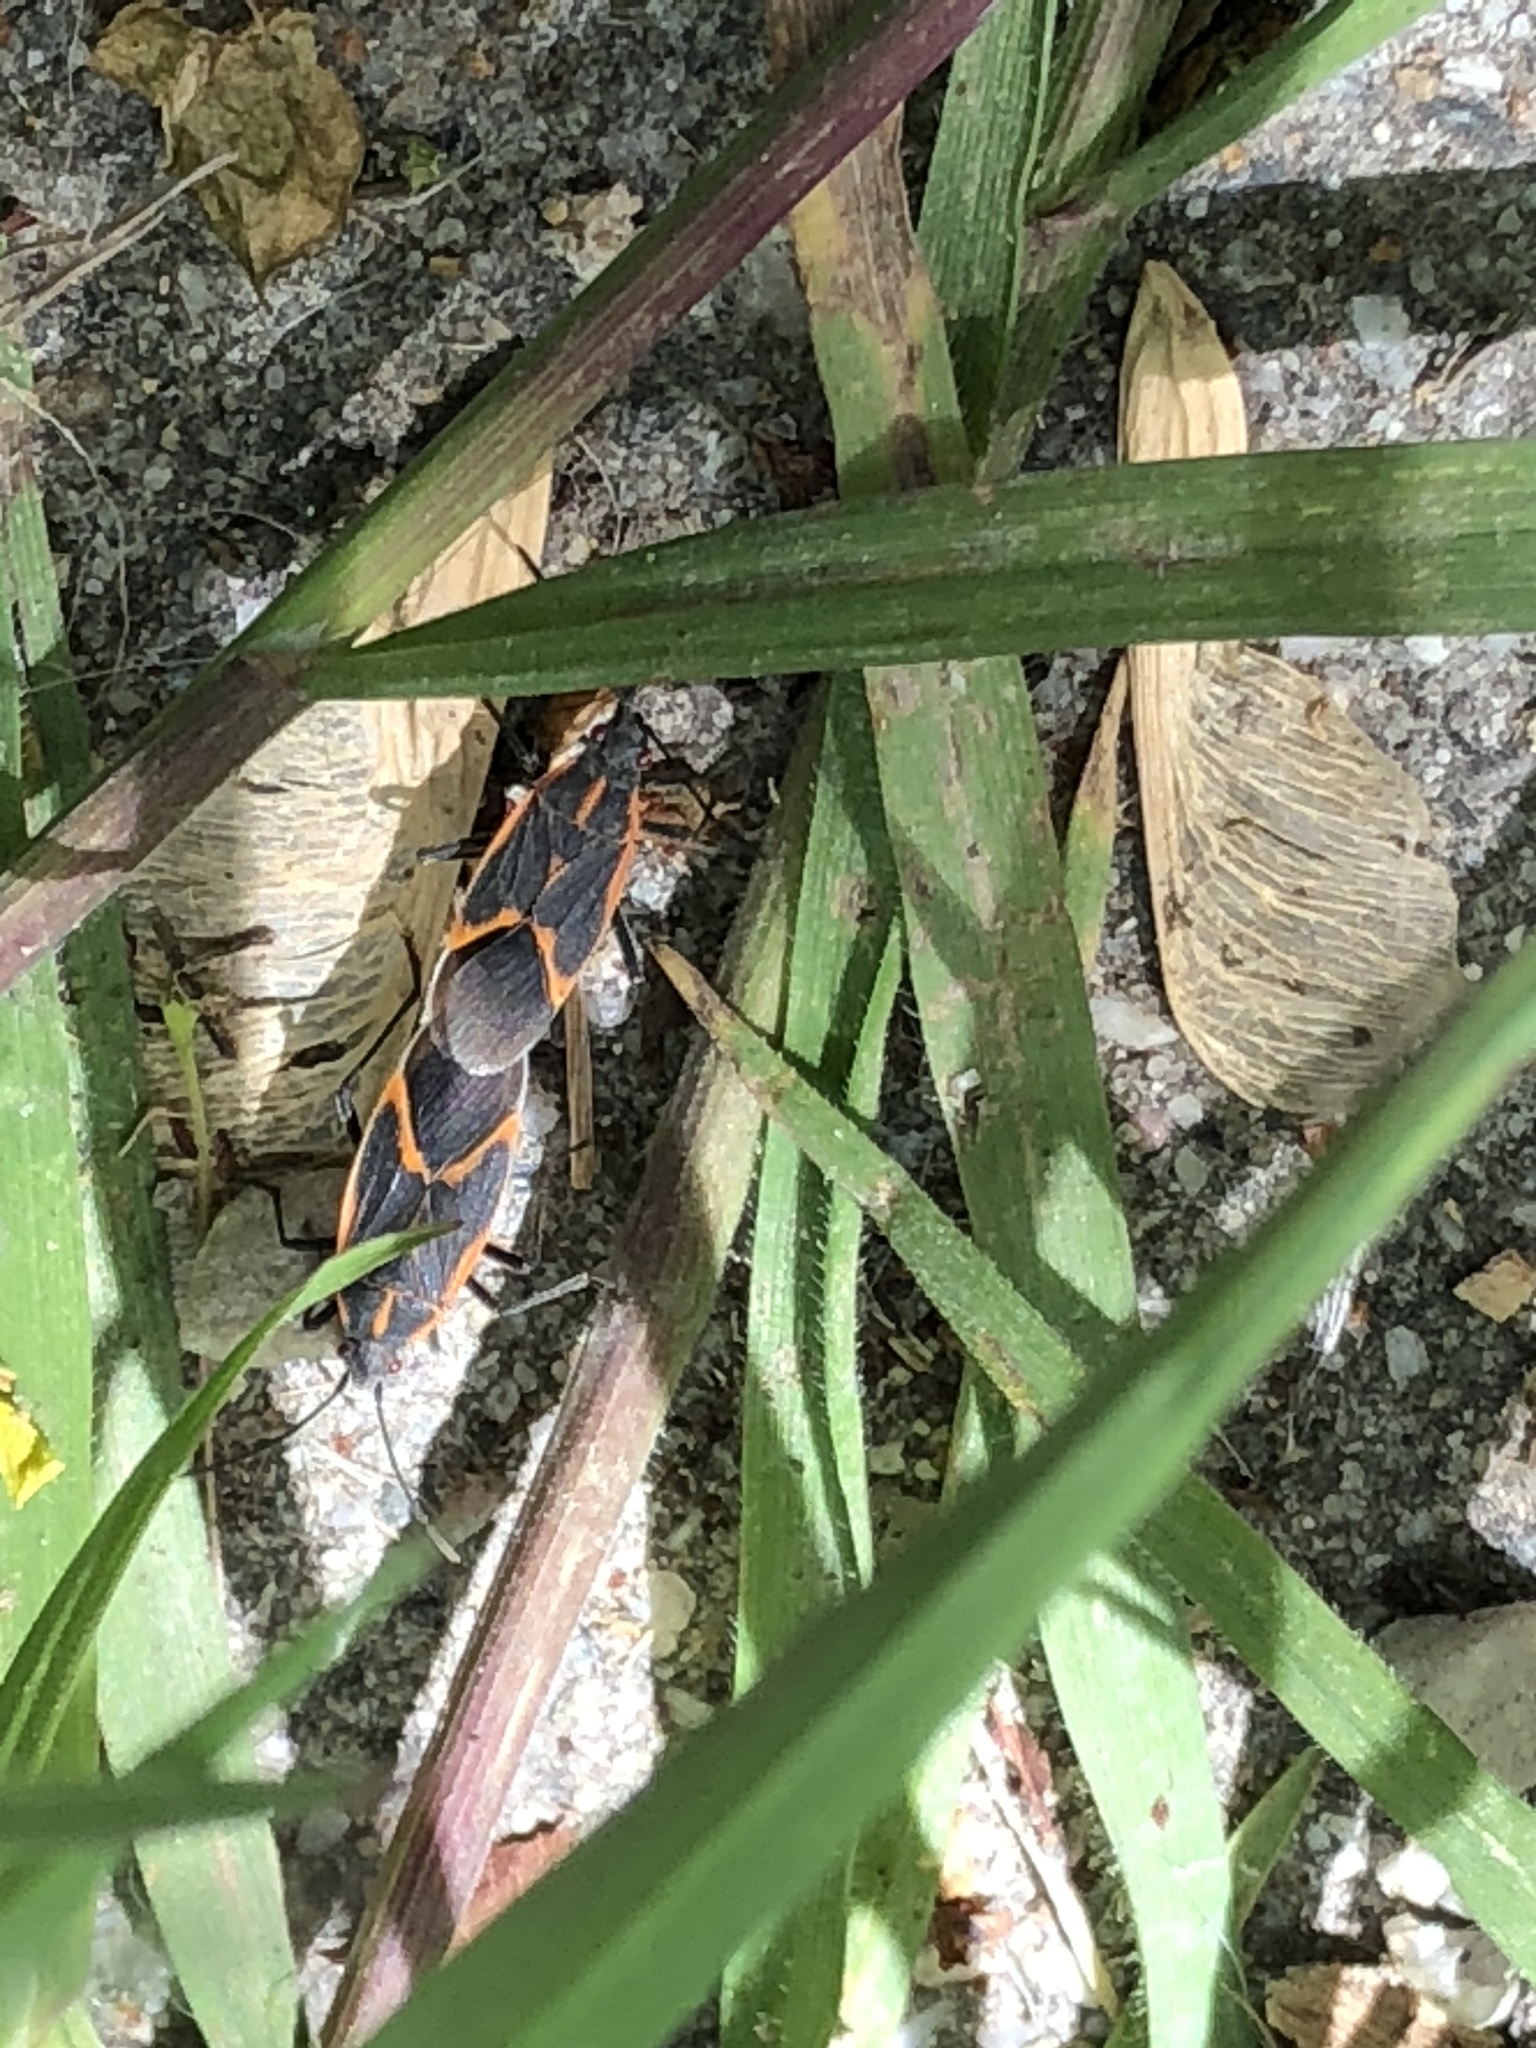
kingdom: Animalia
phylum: Arthropoda
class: Insecta
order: Hemiptera
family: Rhopalidae
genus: Boisea
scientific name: Boisea trivittata
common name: Boxelder bug
